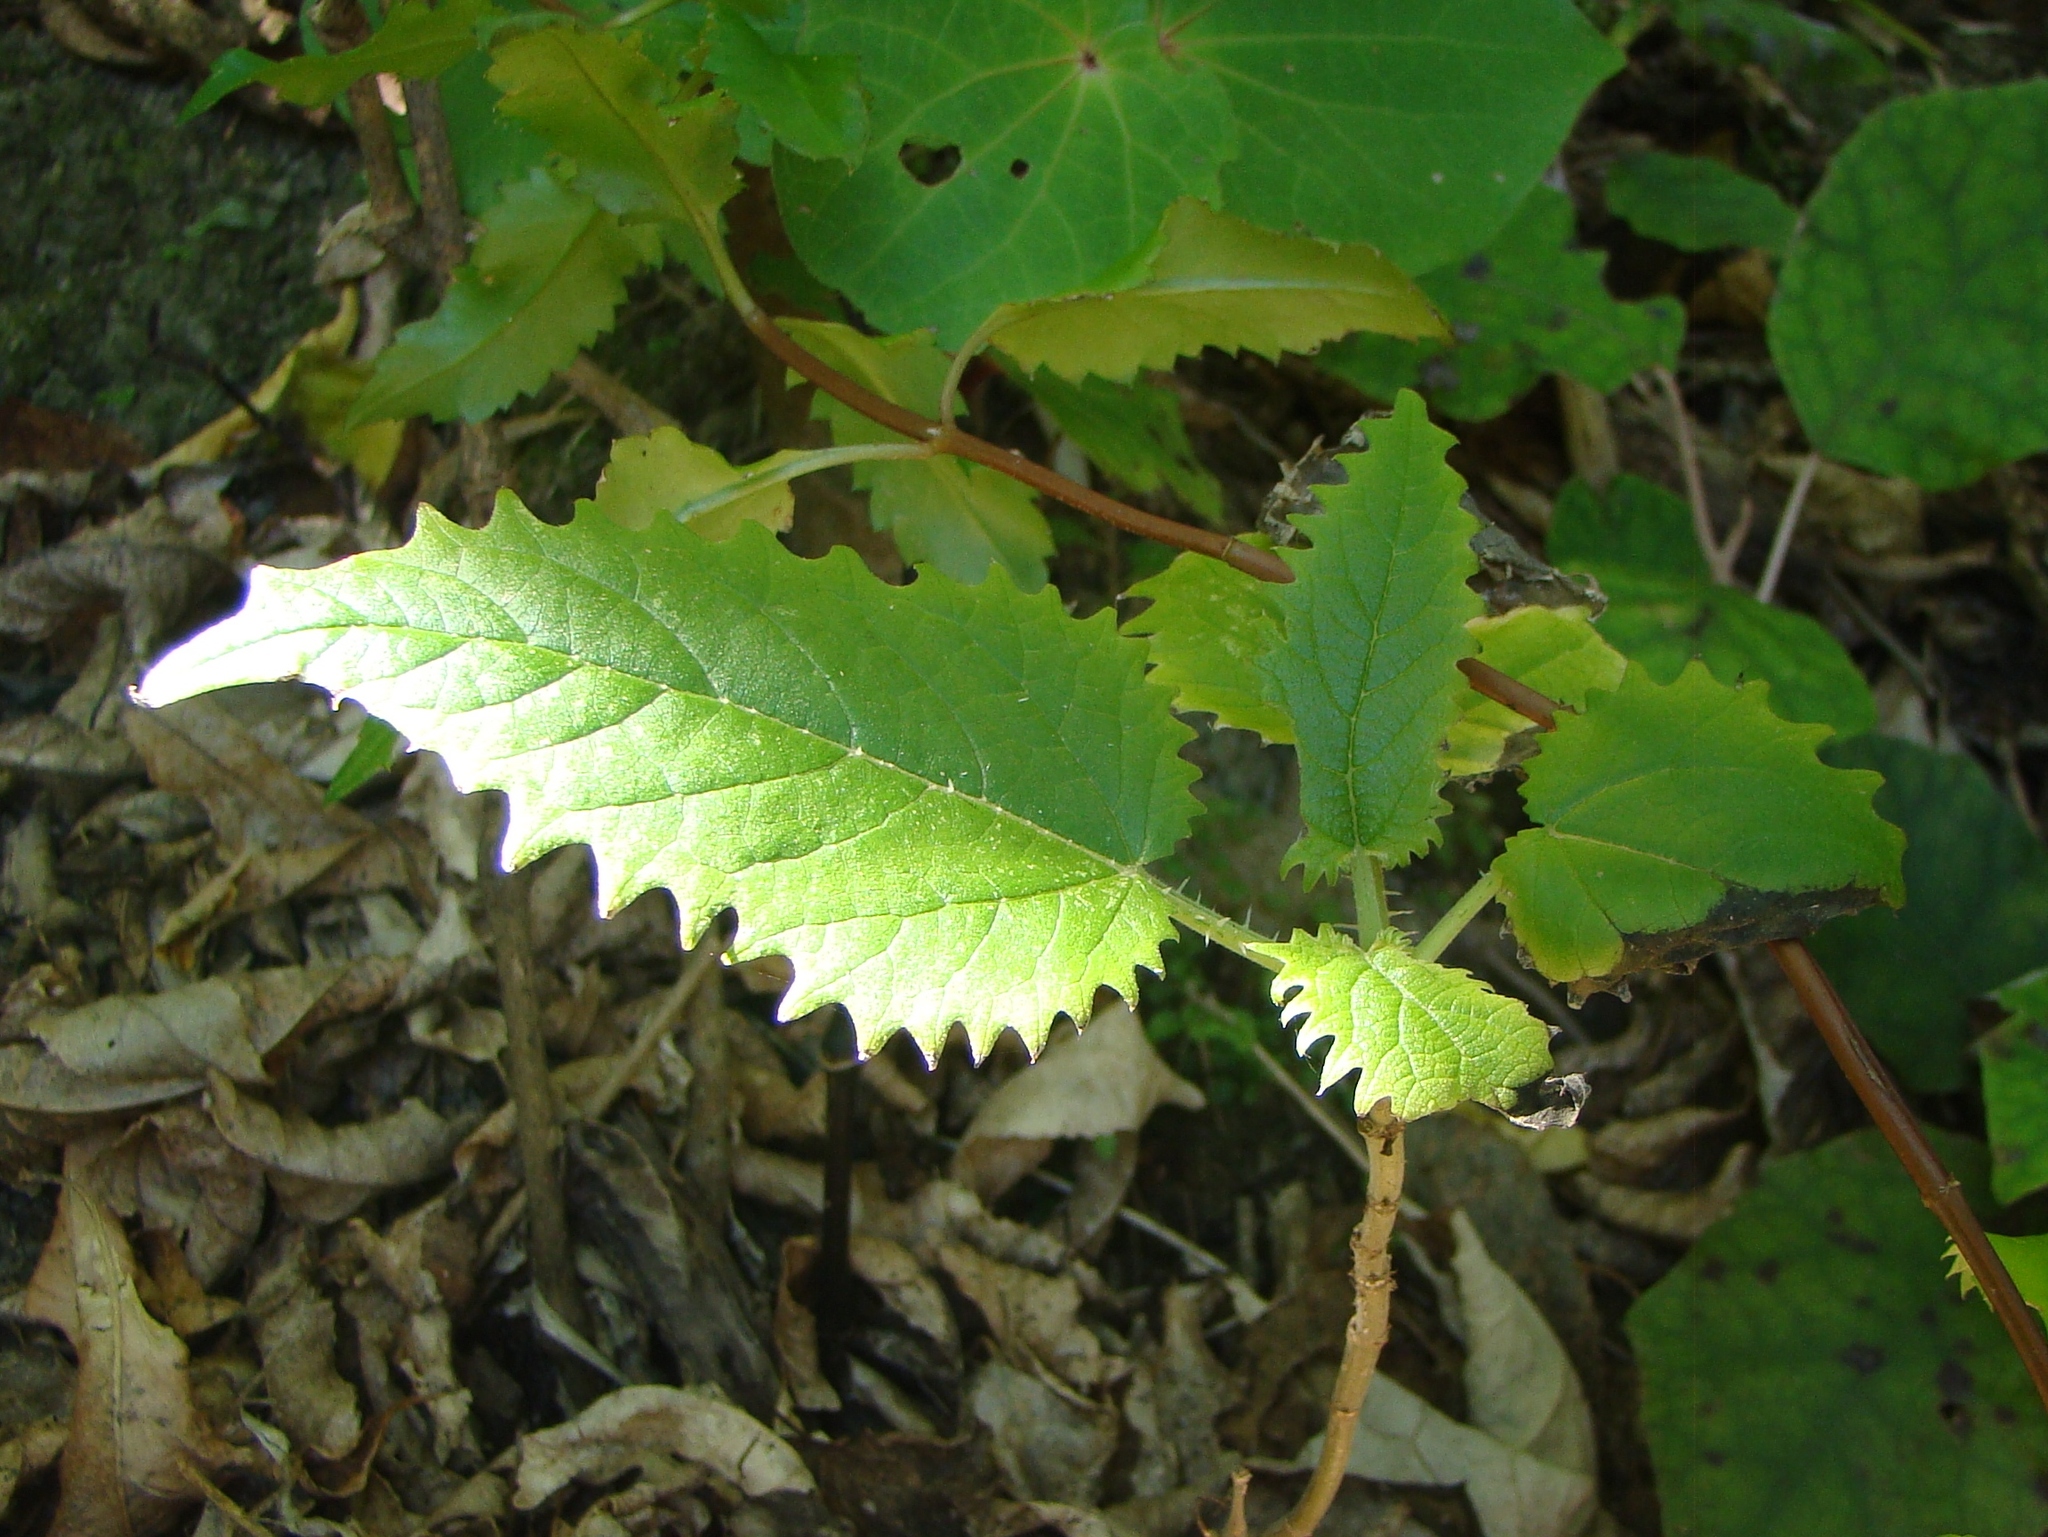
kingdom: Plantae
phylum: Tracheophyta
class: Magnoliopsida
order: Rosales
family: Urticaceae
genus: Urtica
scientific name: Urtica ferox
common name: Tree nettle
